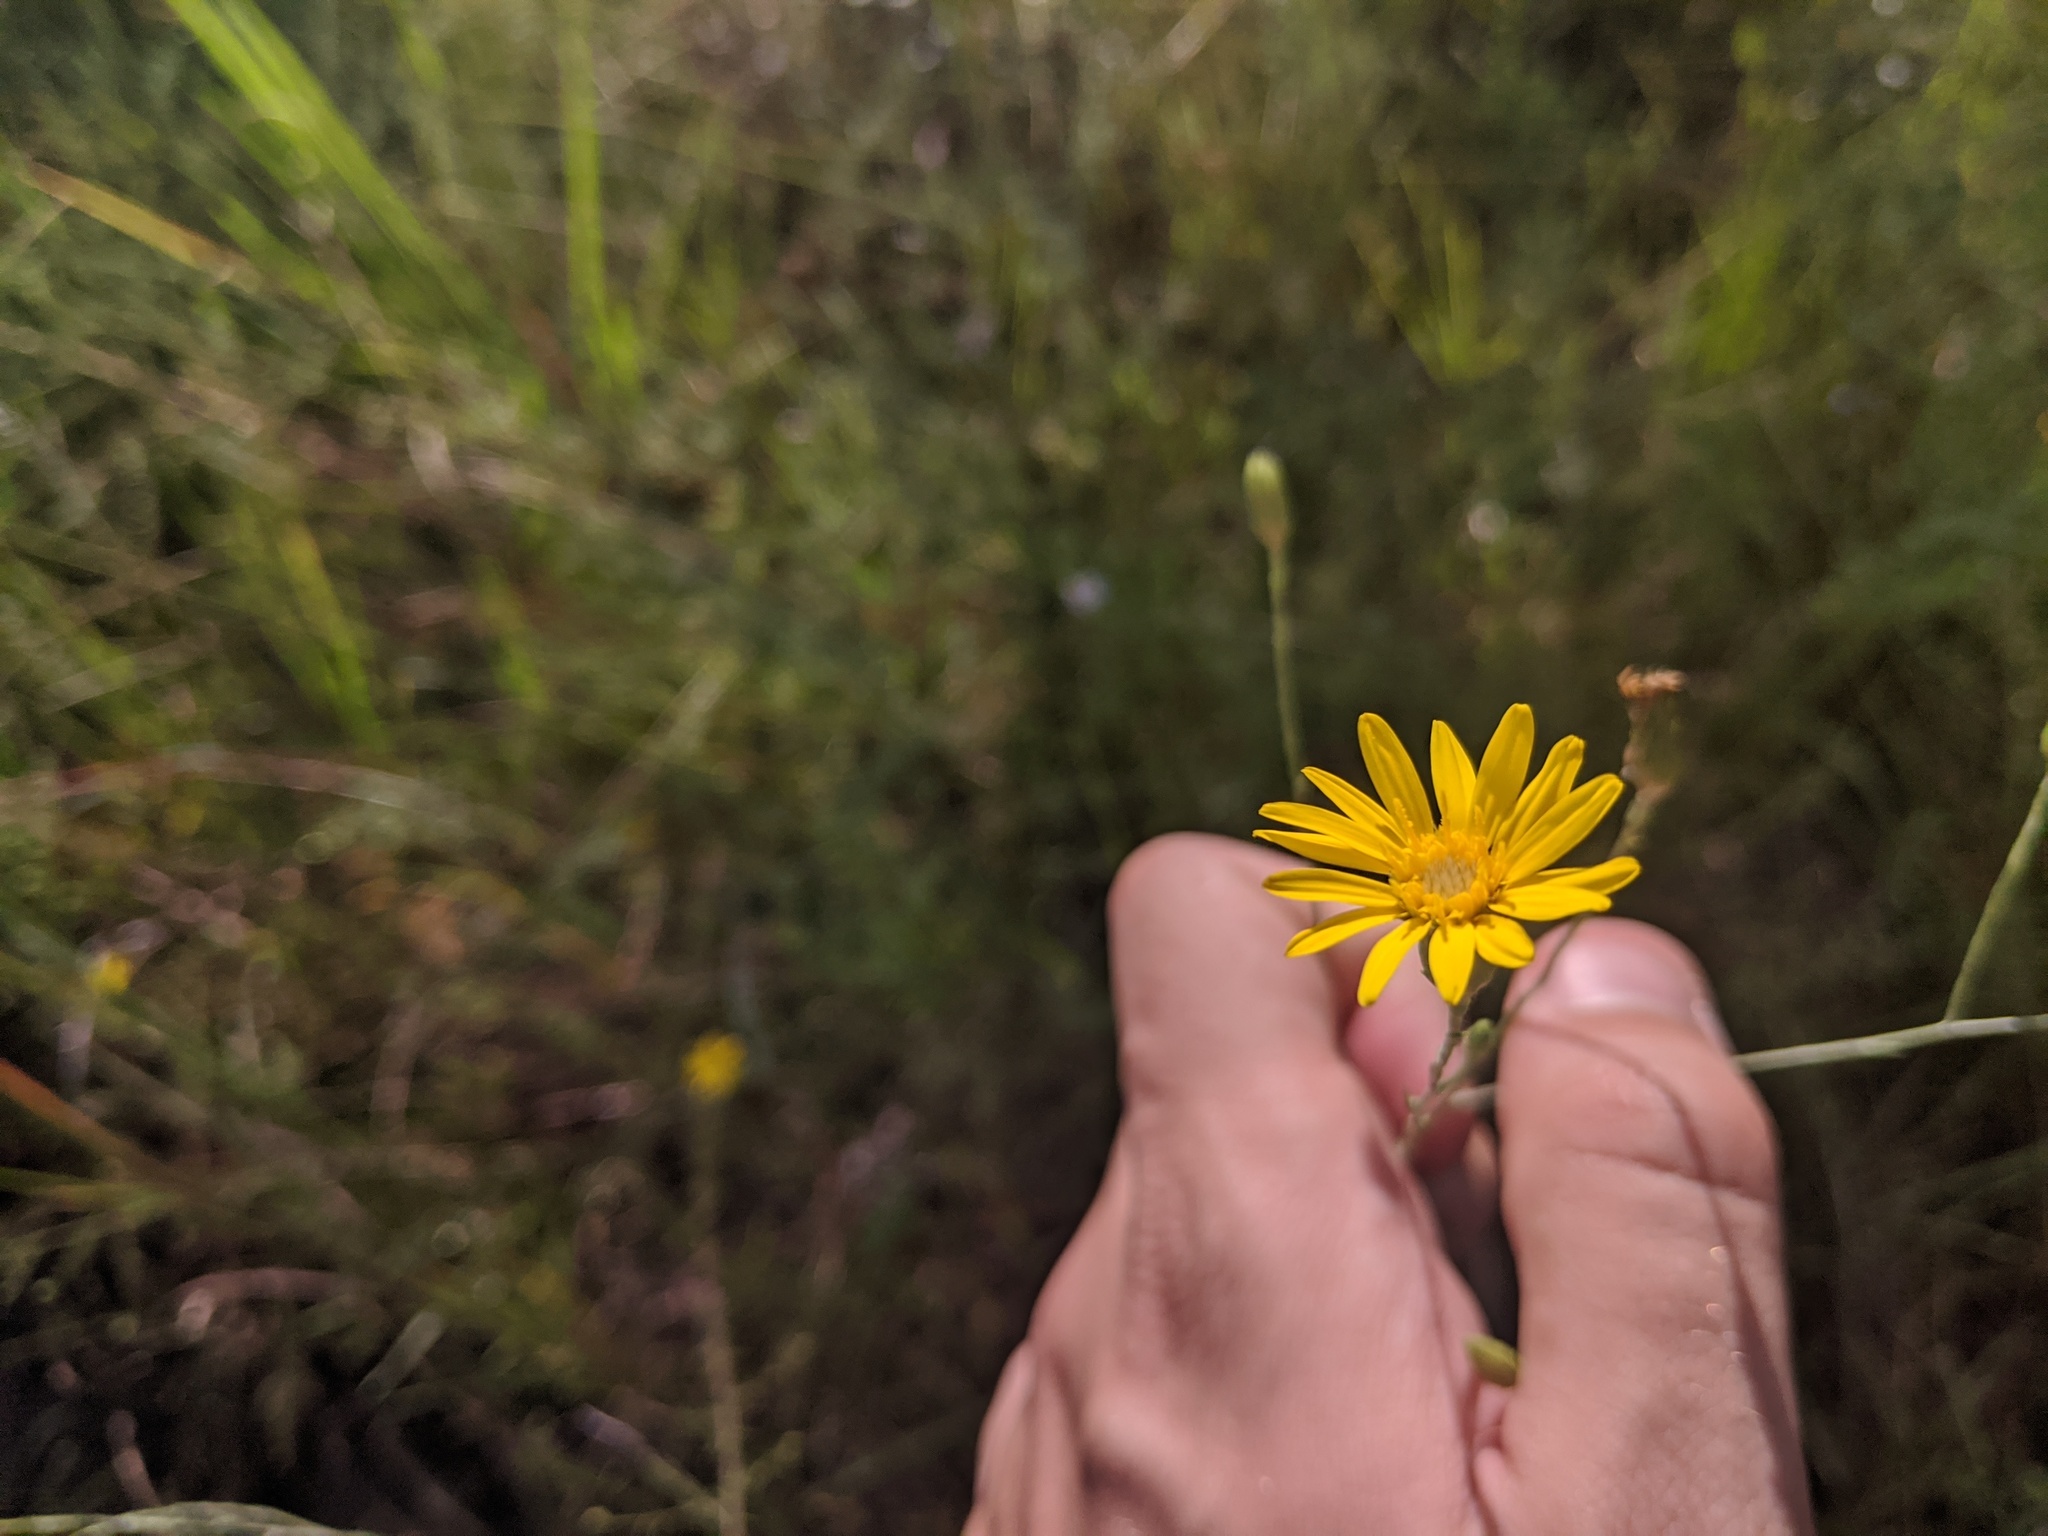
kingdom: Plantae
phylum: Tracheophyta
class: Magnoliopsida
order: Asterales
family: Asteraceae
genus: Pityopsis
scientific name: Pityopsis graminifolia
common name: Grass-leaf golden-aster
